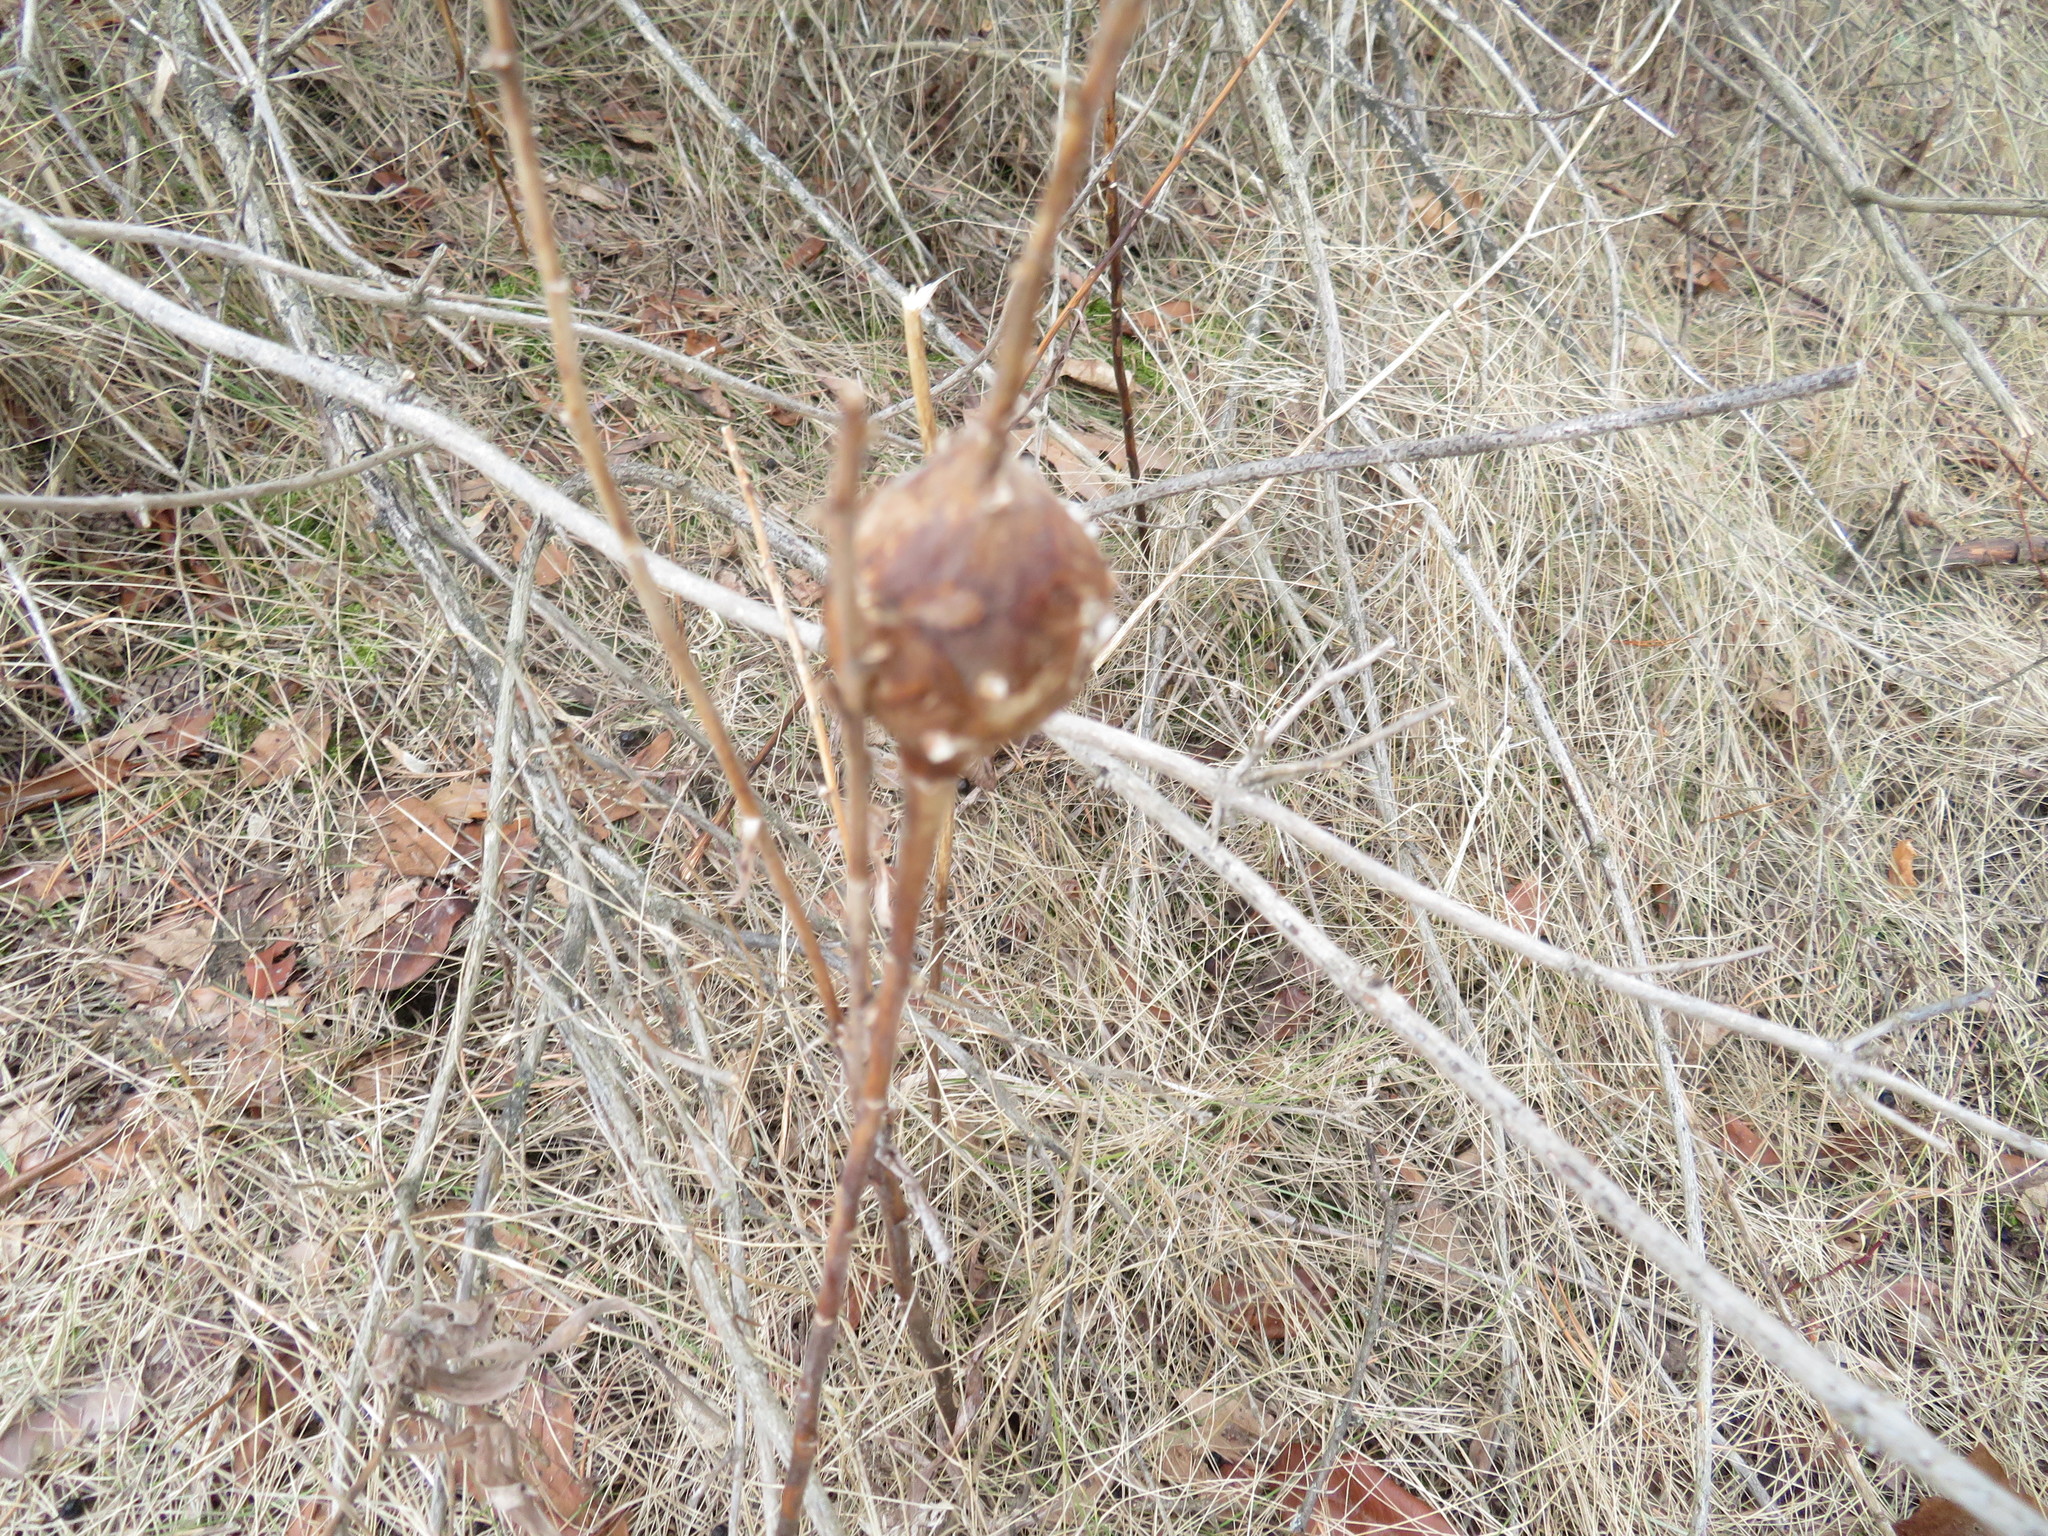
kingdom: Animalia
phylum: Arthropoda
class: Insecta
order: Diptera
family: Tephritidae
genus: Eurosta
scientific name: Eurosta solidaginis
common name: Goldenrod gall fly
